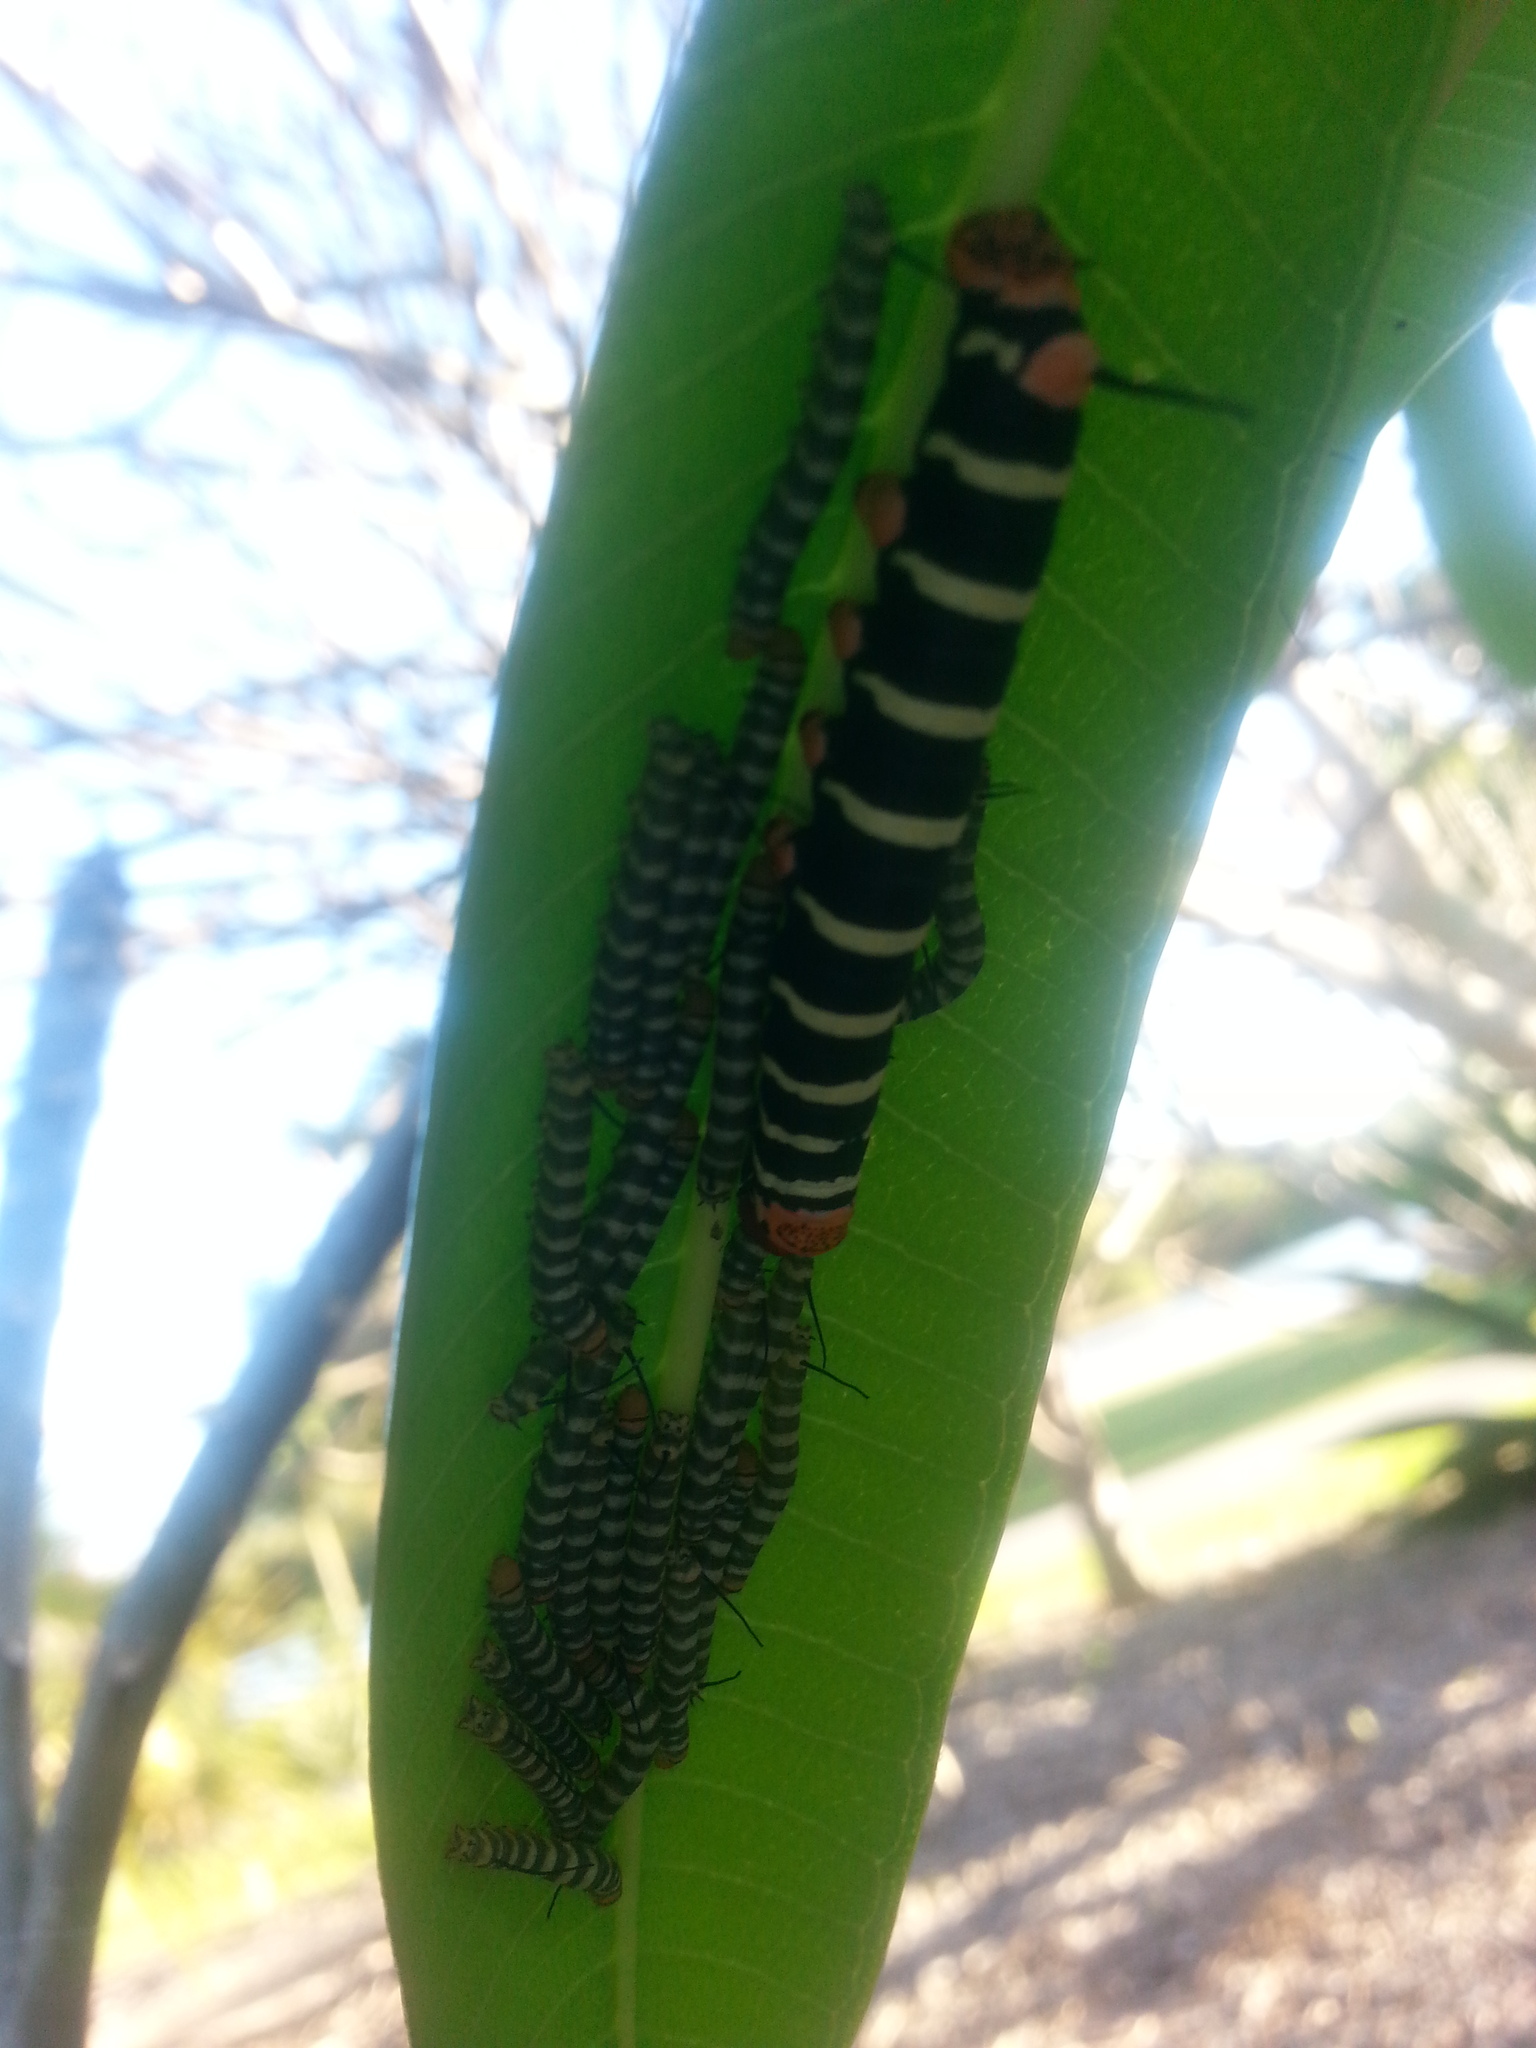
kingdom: Animalia
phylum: Arthropoda
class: Insecta
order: Lepidoptera
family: Sphingidae
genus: Pseudosphinx
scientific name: Pseudosphinx tetrio
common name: Tetrio sphinx
